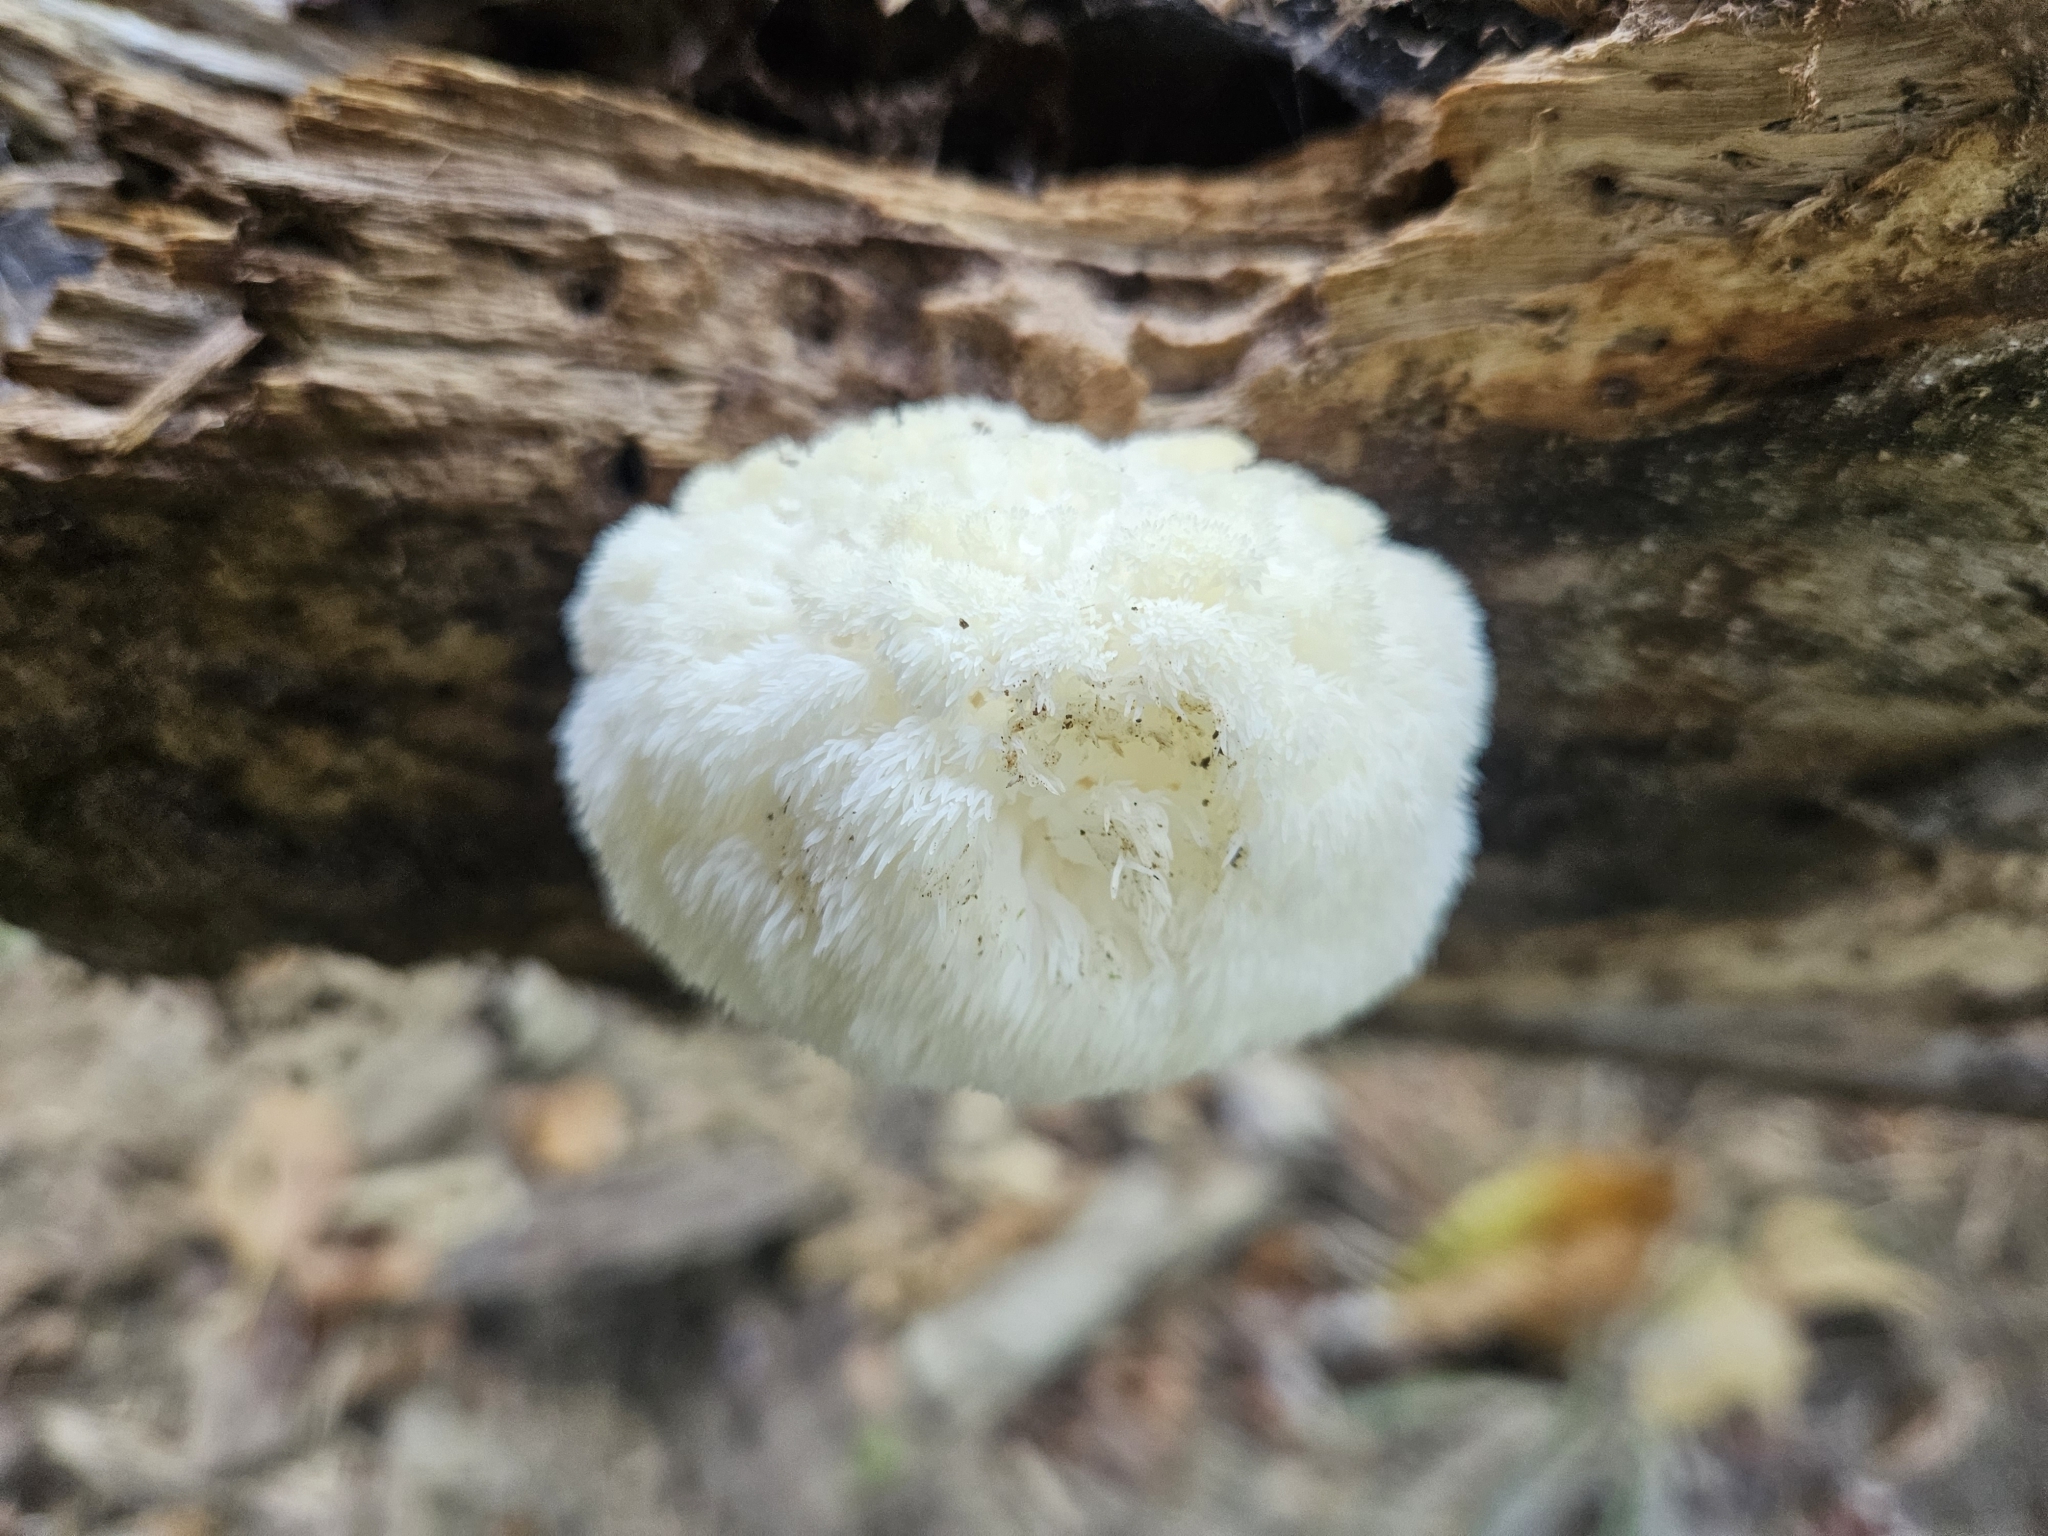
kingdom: Fungi
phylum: Basidiomycota
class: Agaricomycetes
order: Russulales
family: Hericiaceae
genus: Hericium
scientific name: Hericium erinaceus
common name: Bearded tooth
